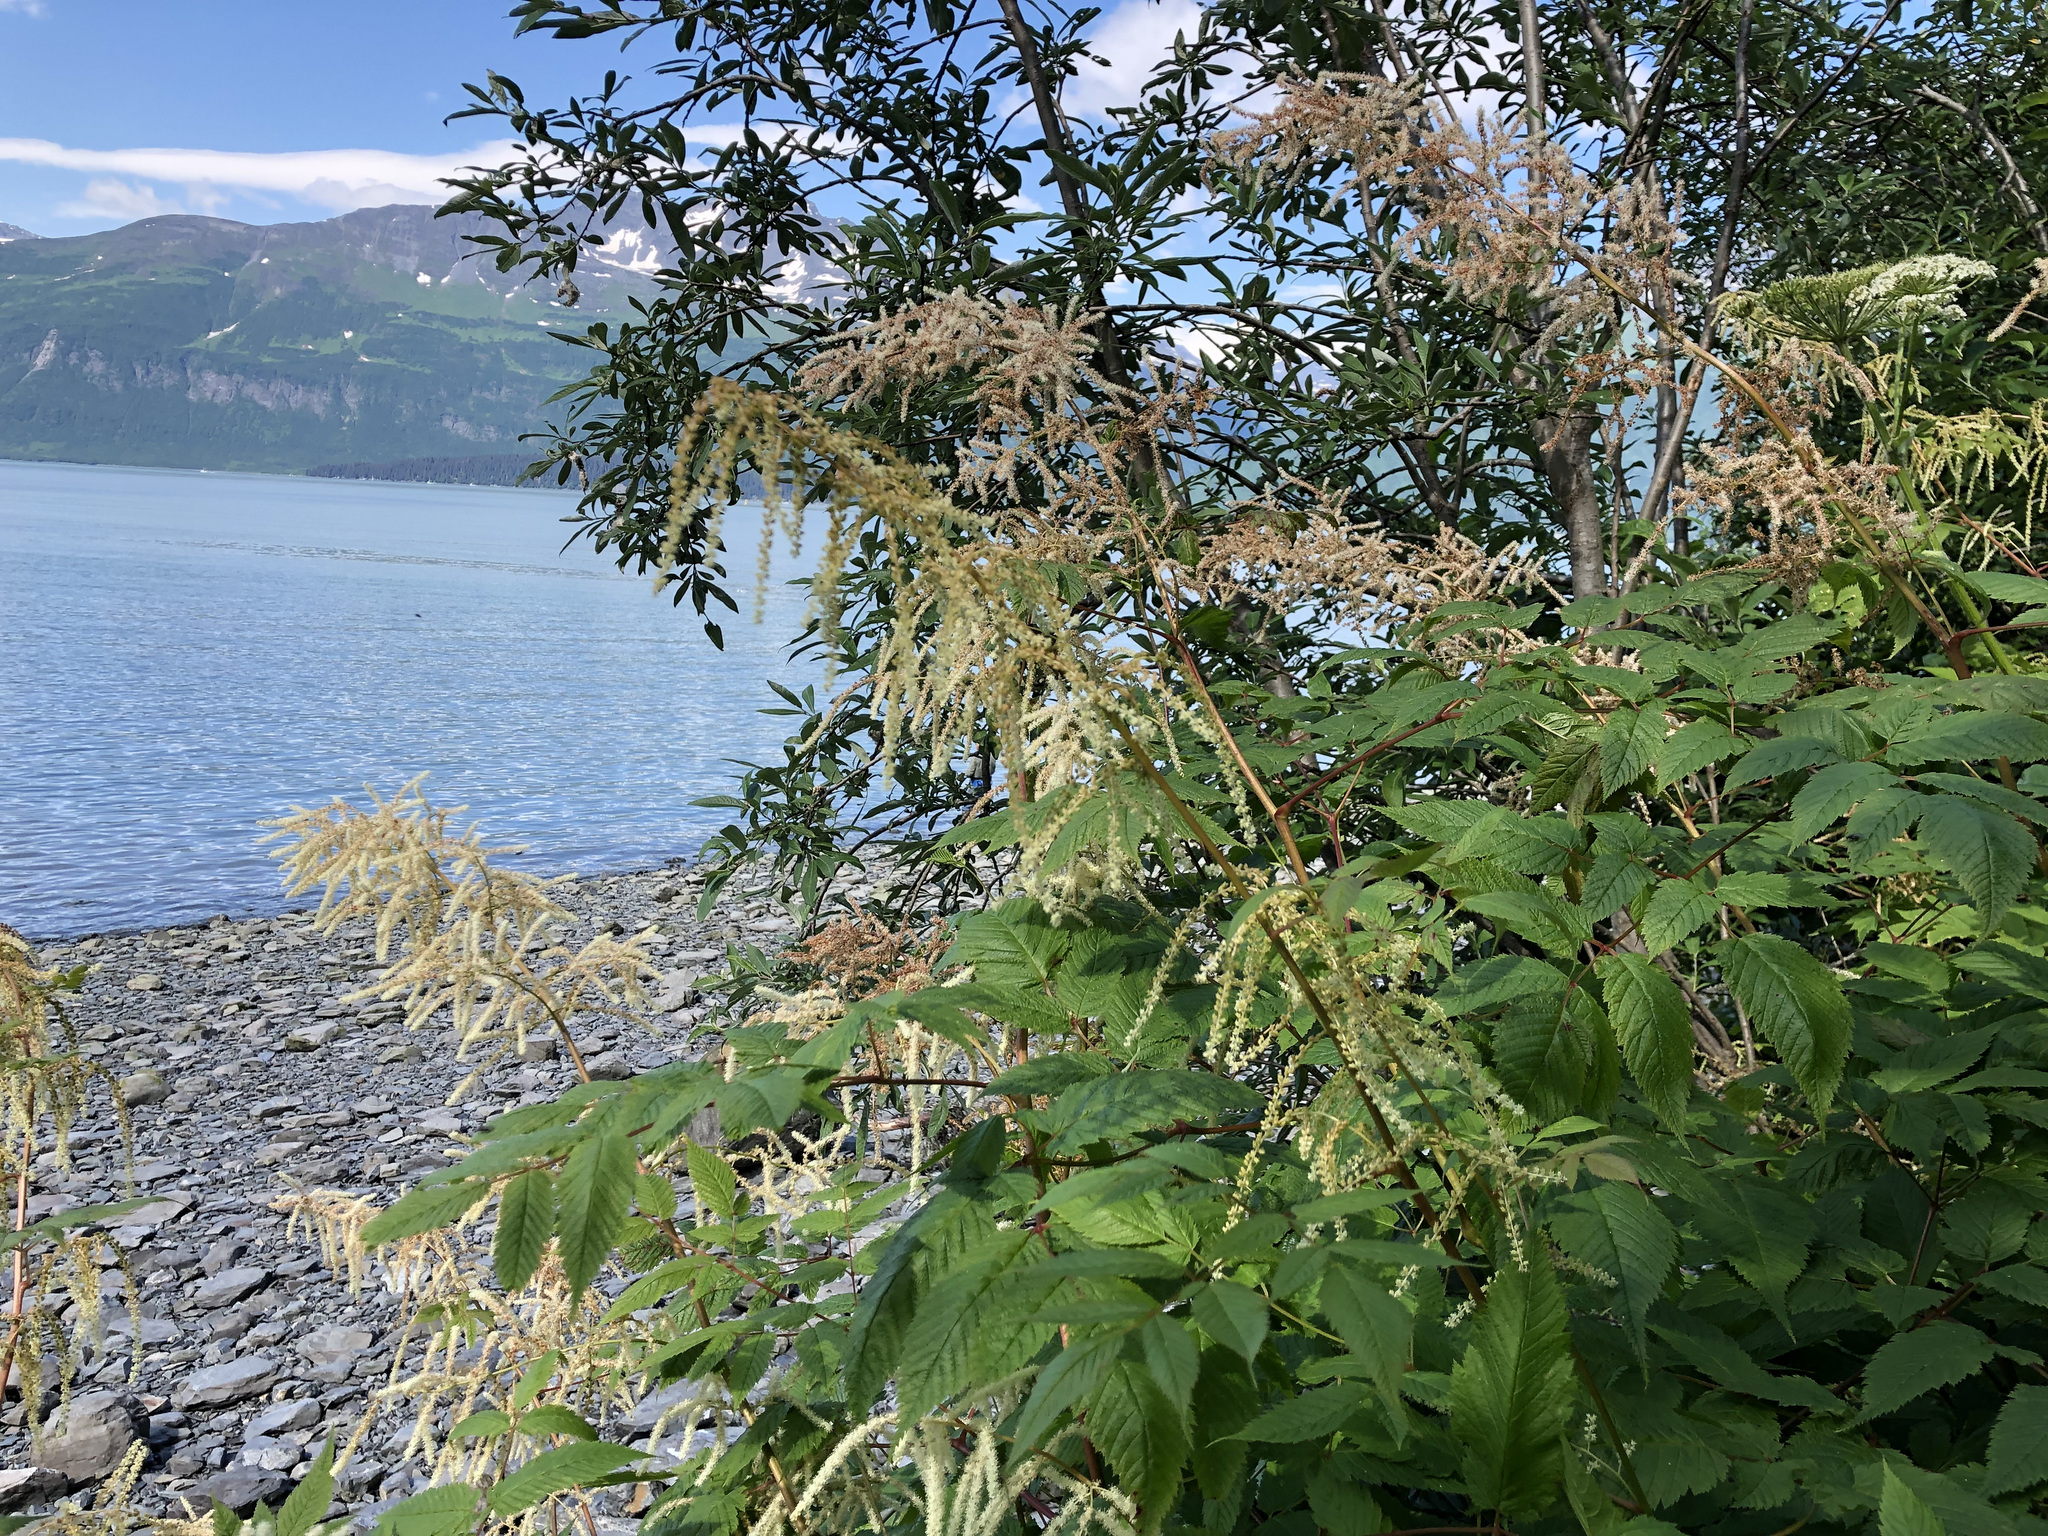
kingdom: Plantae
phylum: Tracheophyta
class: Magnoliopsida
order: Rosales
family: Rosaceae
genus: Aruncus
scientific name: Aruncus dioicus
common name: Buck's-beard
